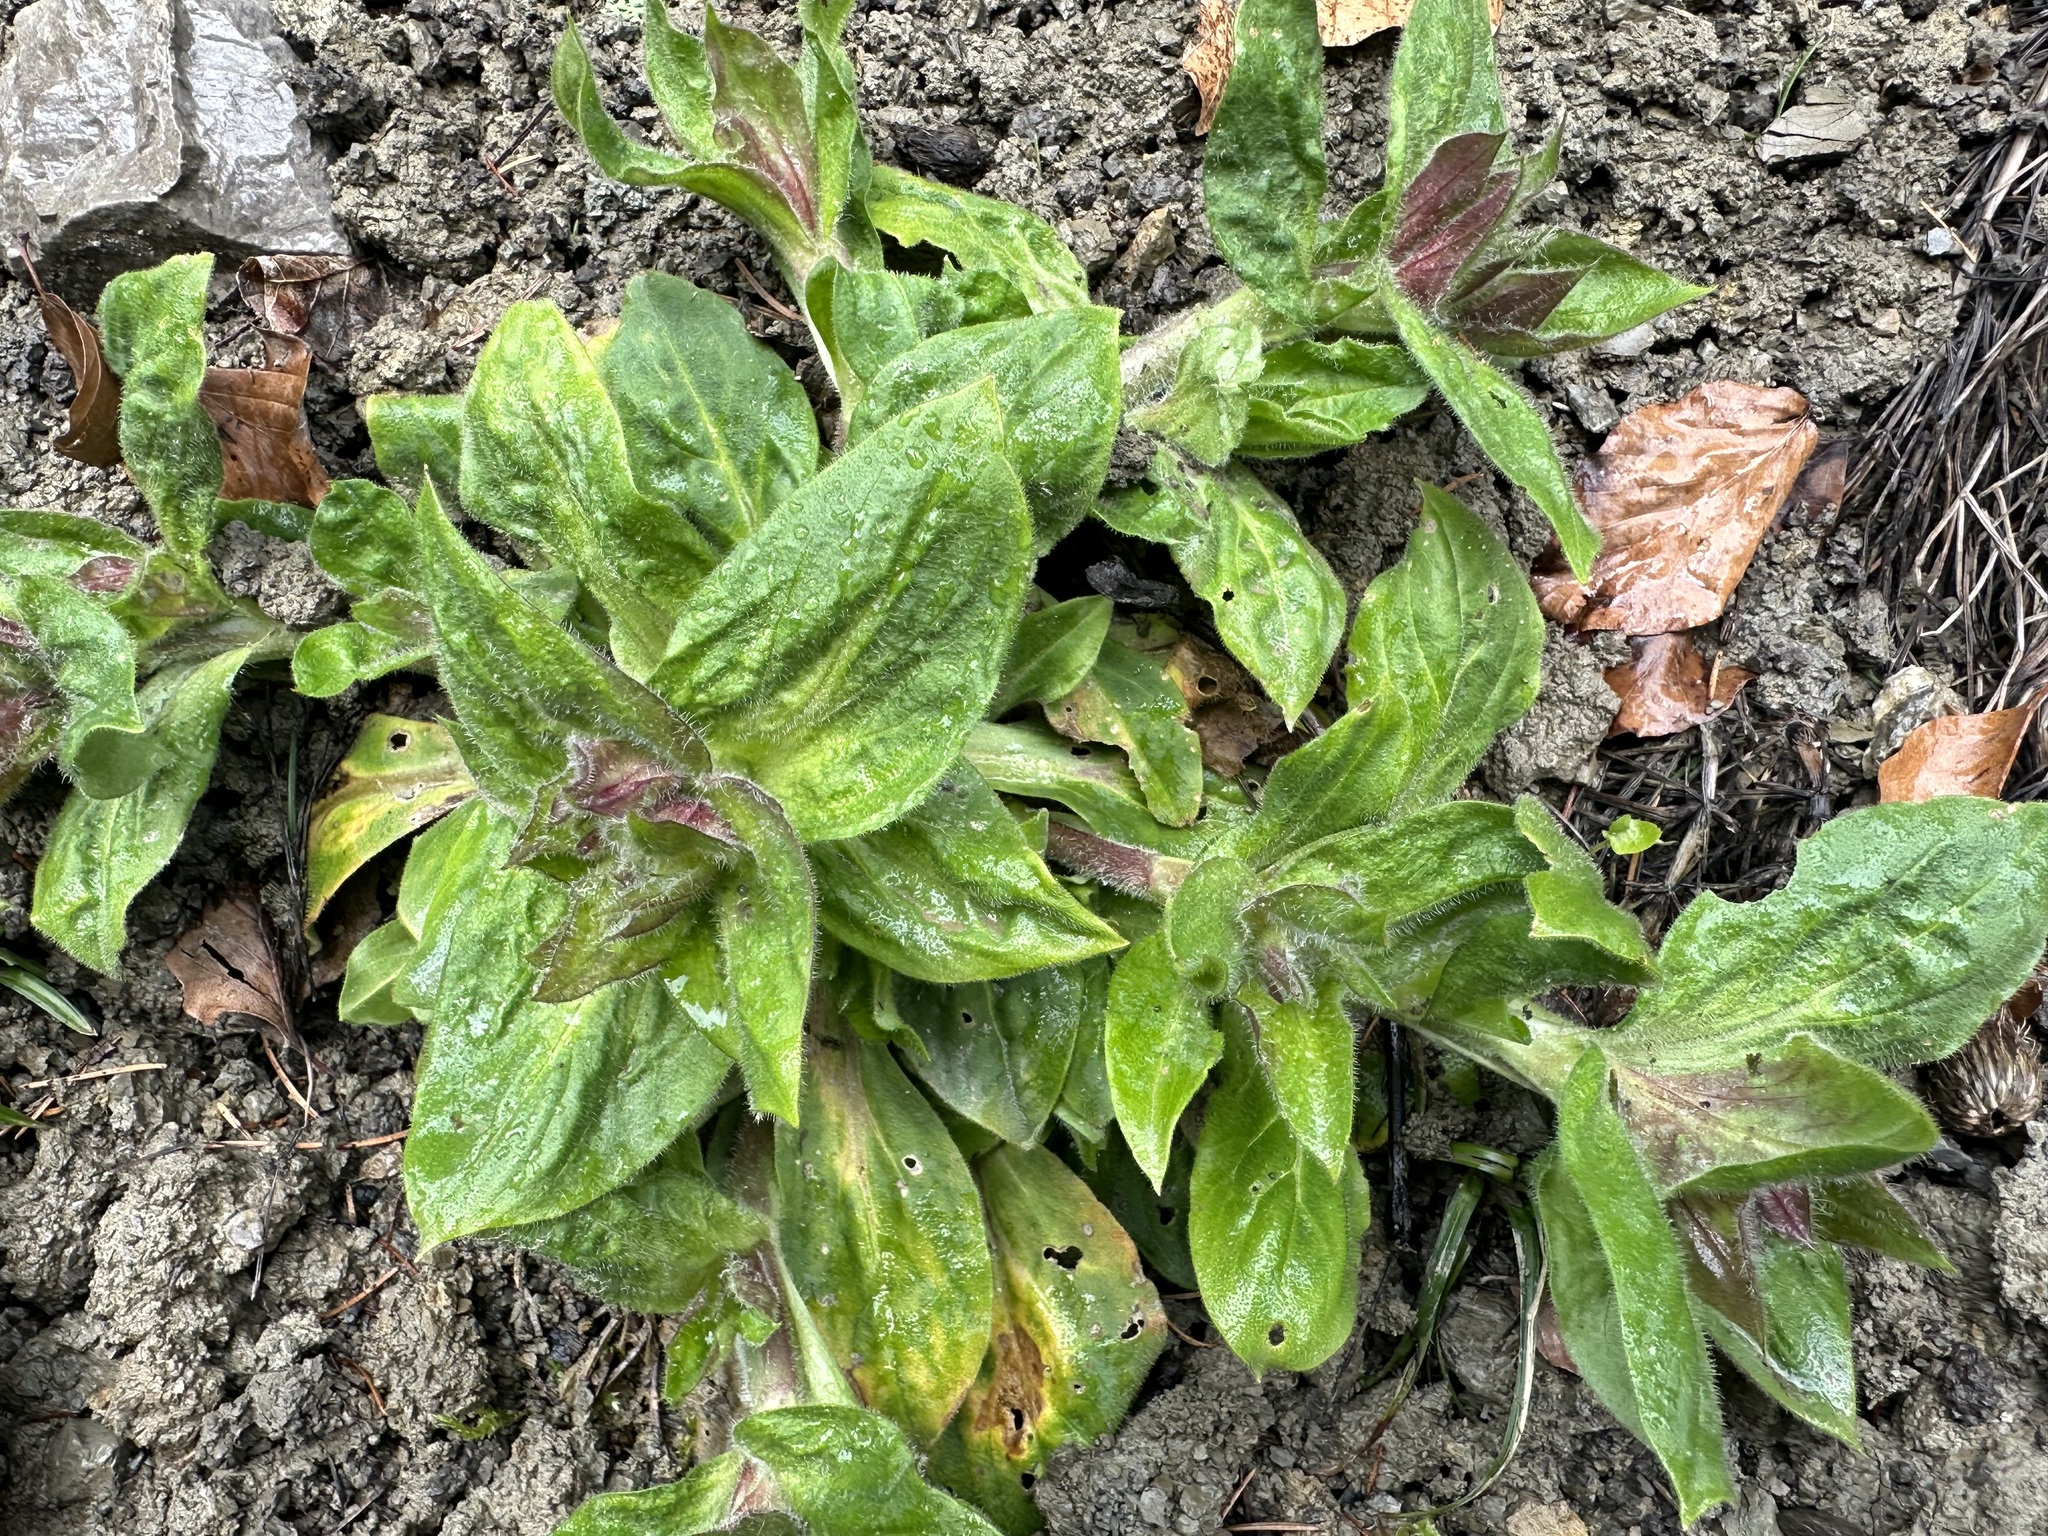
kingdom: Plantae
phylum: Tracheophyta
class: Magnoliopsida
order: Caryophyllales
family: Caryophyllaceae
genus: Silene
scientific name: Silene dioica
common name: Red campion
